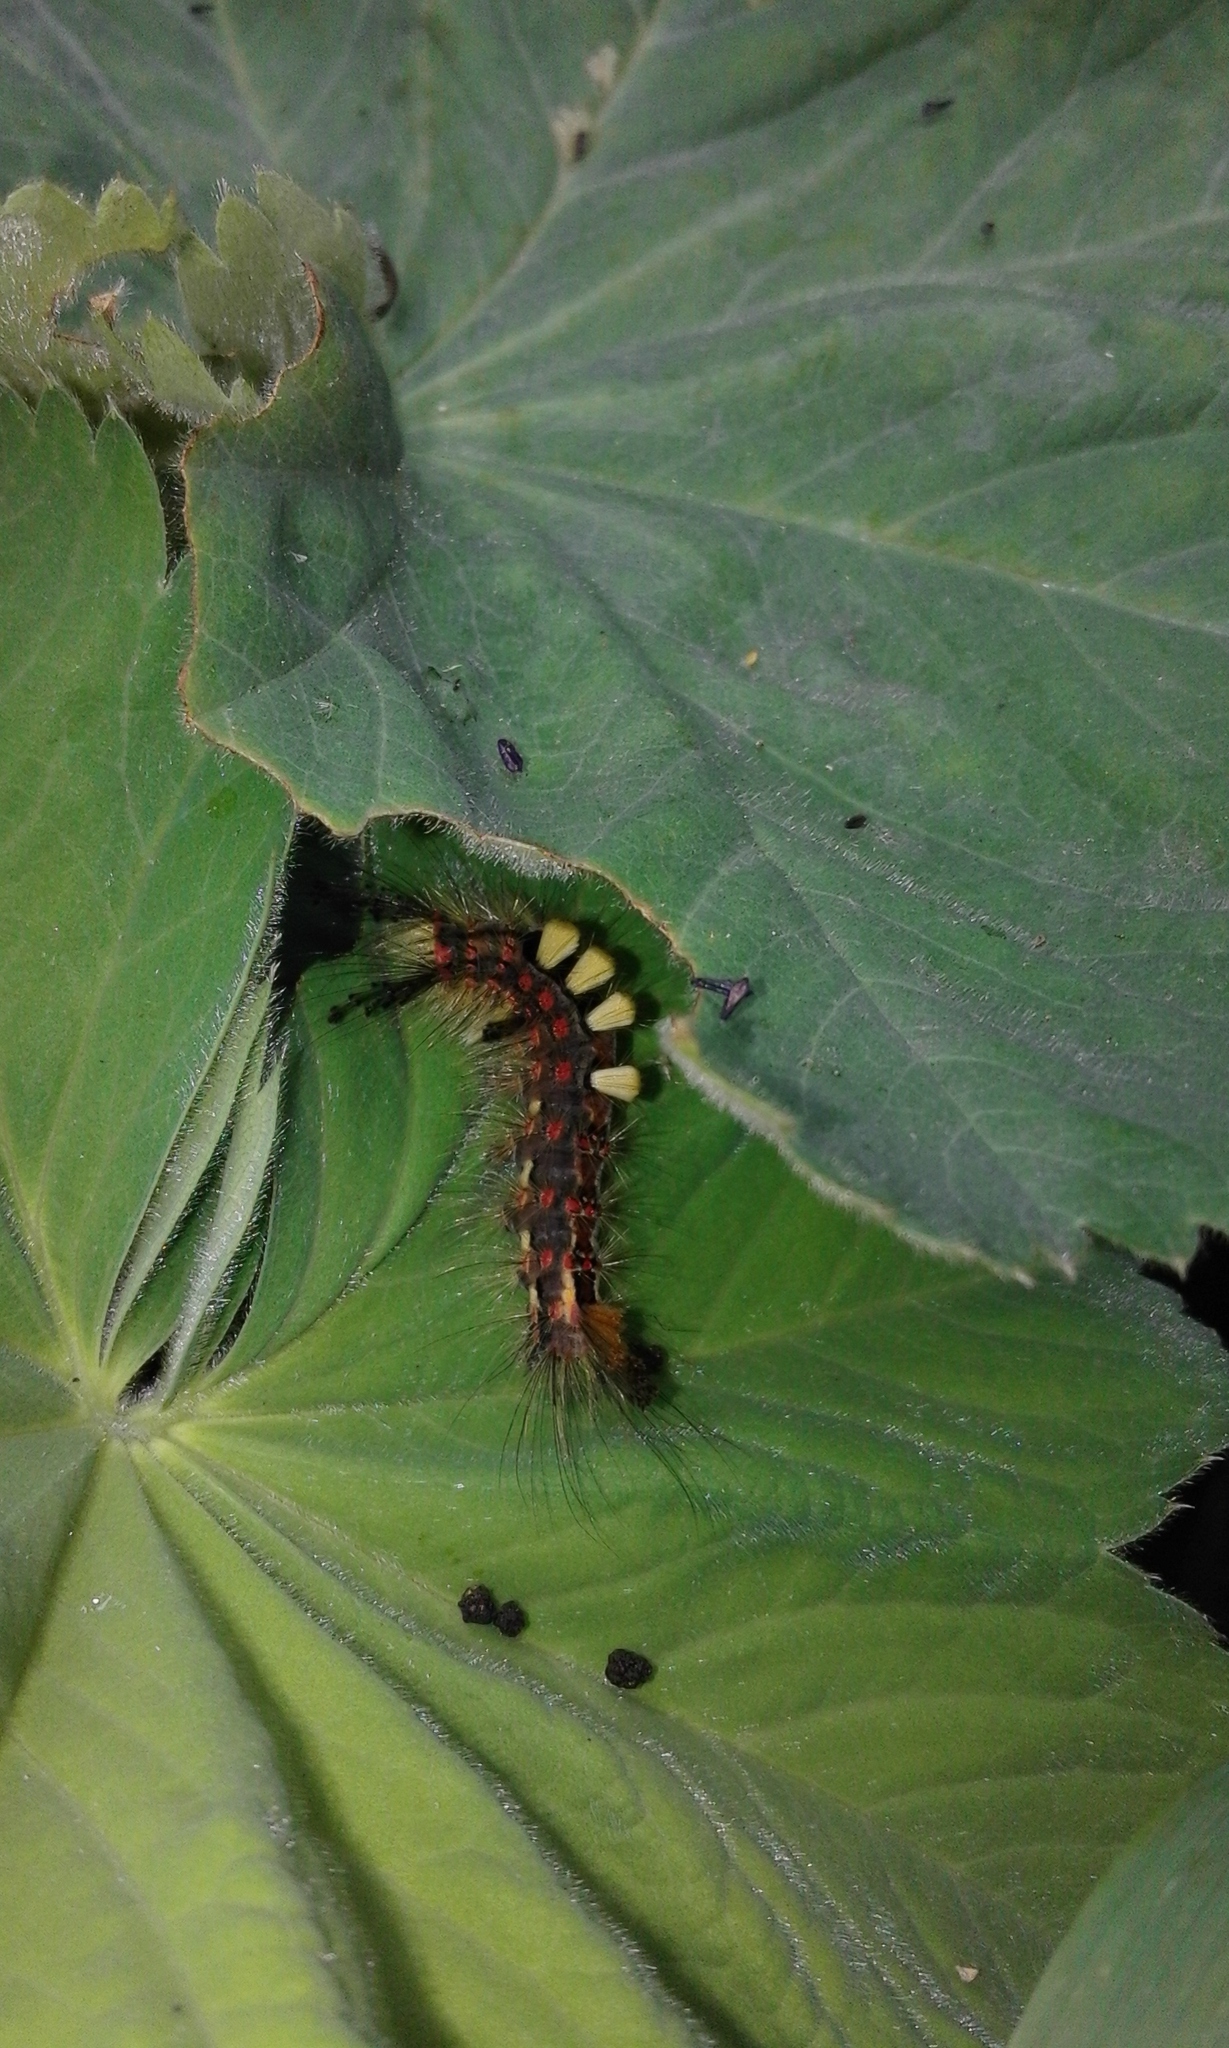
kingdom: Animalia
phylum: Arthropoda
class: Insecta
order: Lepidoptera
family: Erebidae
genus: Orgyia
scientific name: Orgyia antiqua
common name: Vapourer
